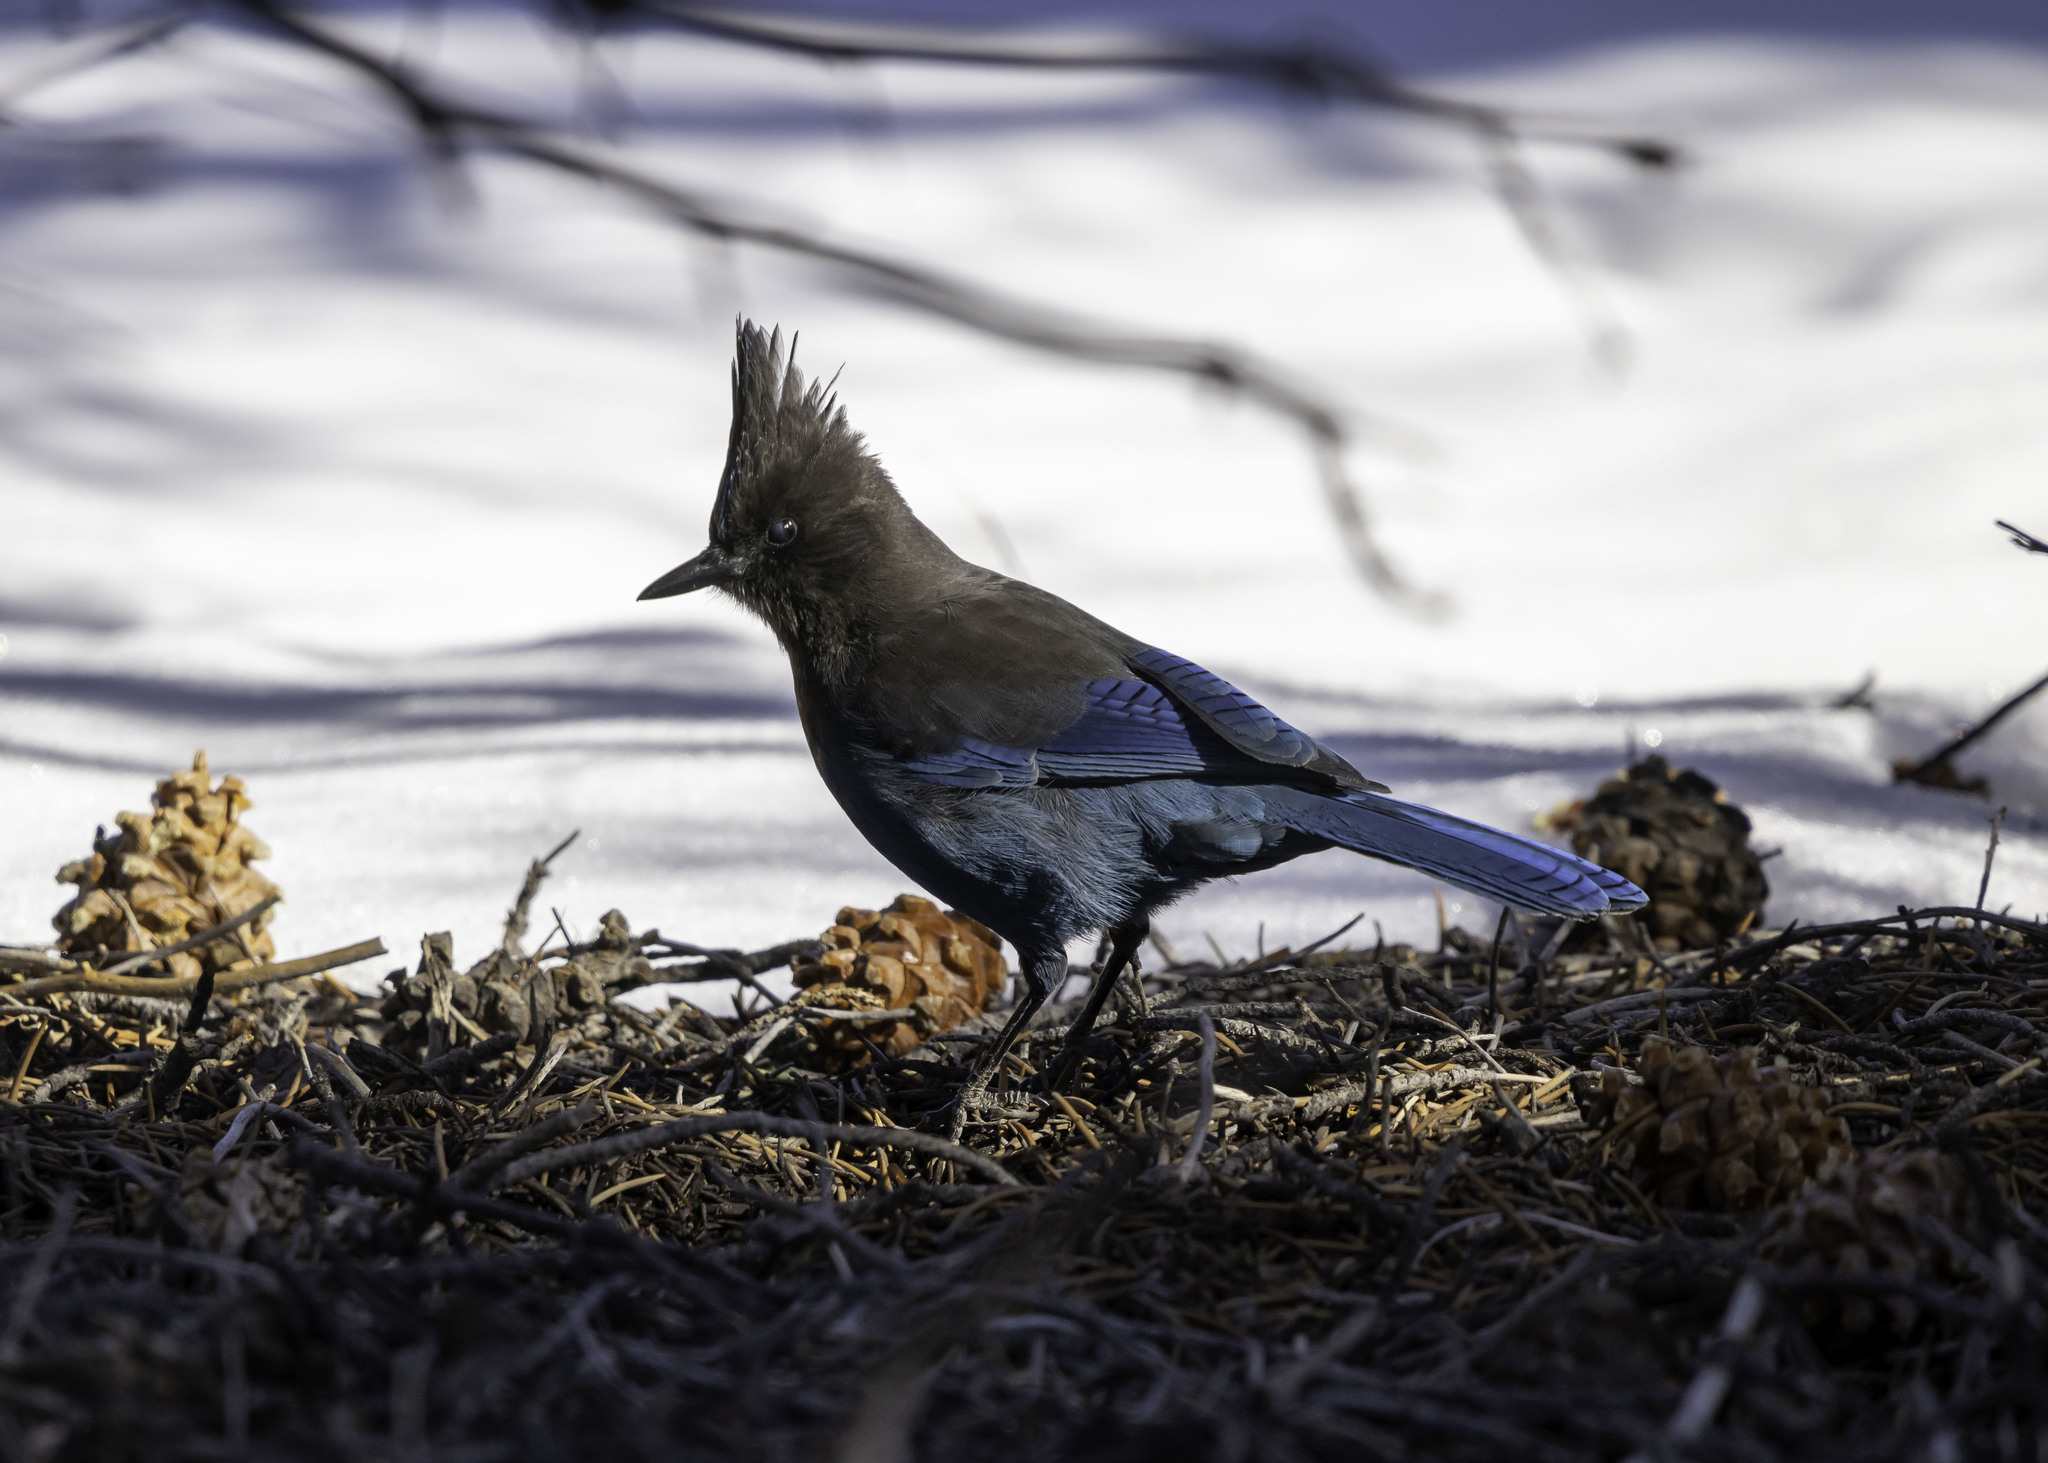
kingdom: Animalia
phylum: Chordata
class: Aves
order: Passeriformes
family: Corvidae
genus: Cyanocitta
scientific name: Cyanocitta stelleri
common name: Steller's jay
